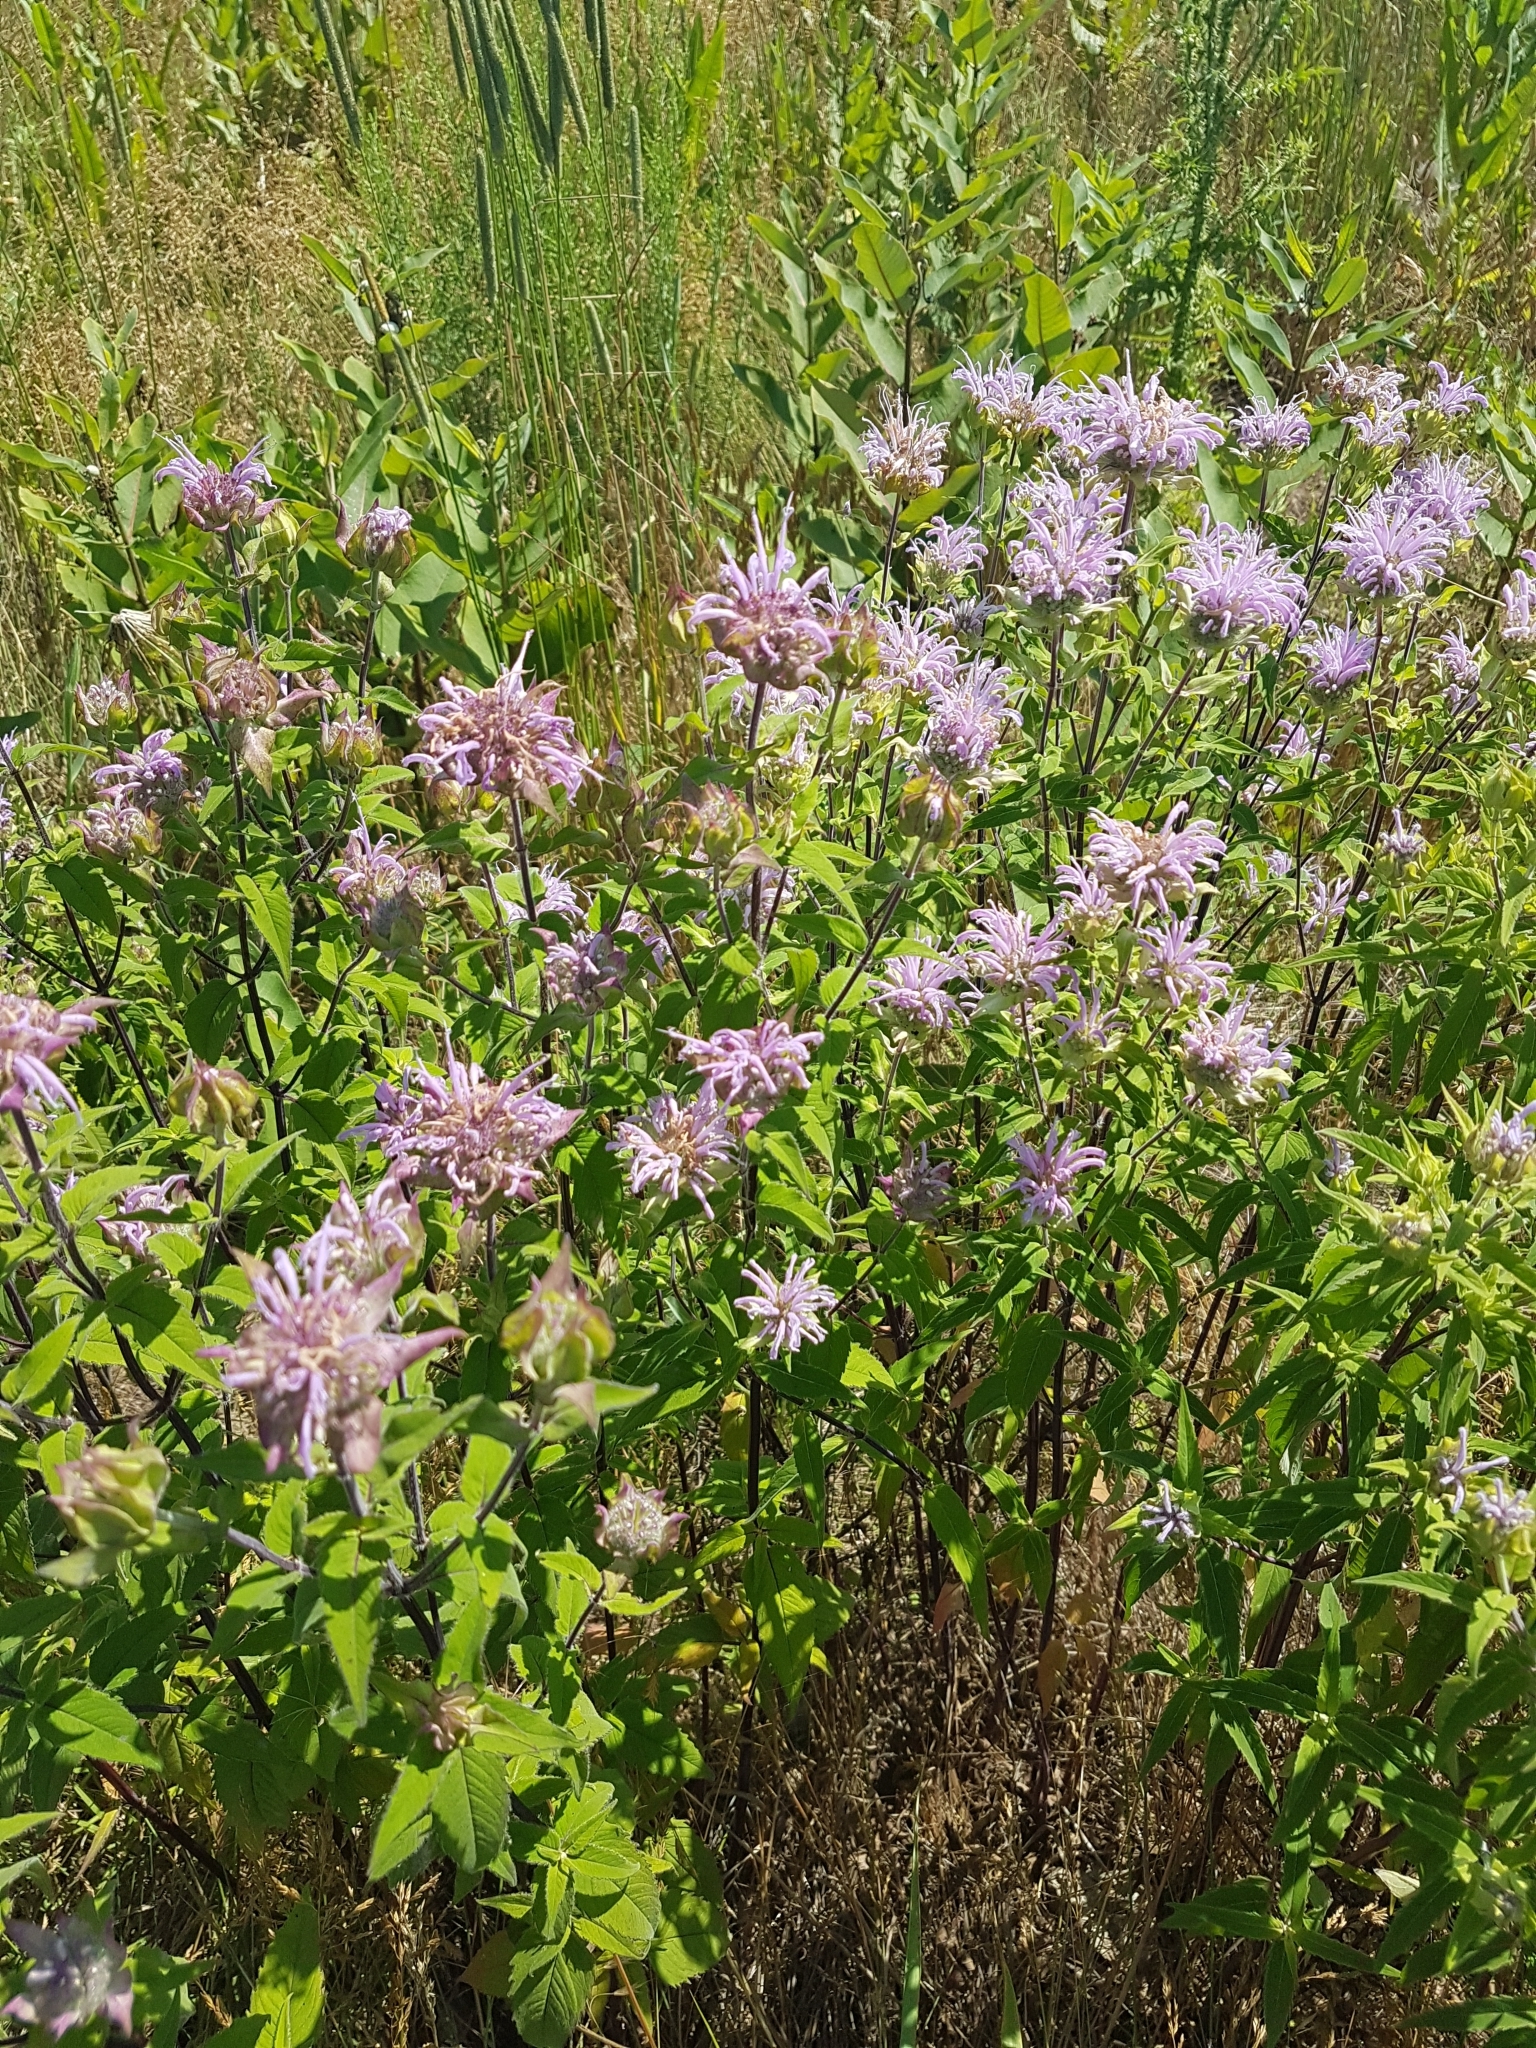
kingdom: Plantae
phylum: Tracheophyta
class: Magnoliopsida
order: Lamiales
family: Lamiaceae
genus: Monarda
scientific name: Monarda fistulosa
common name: Purple beebalm
